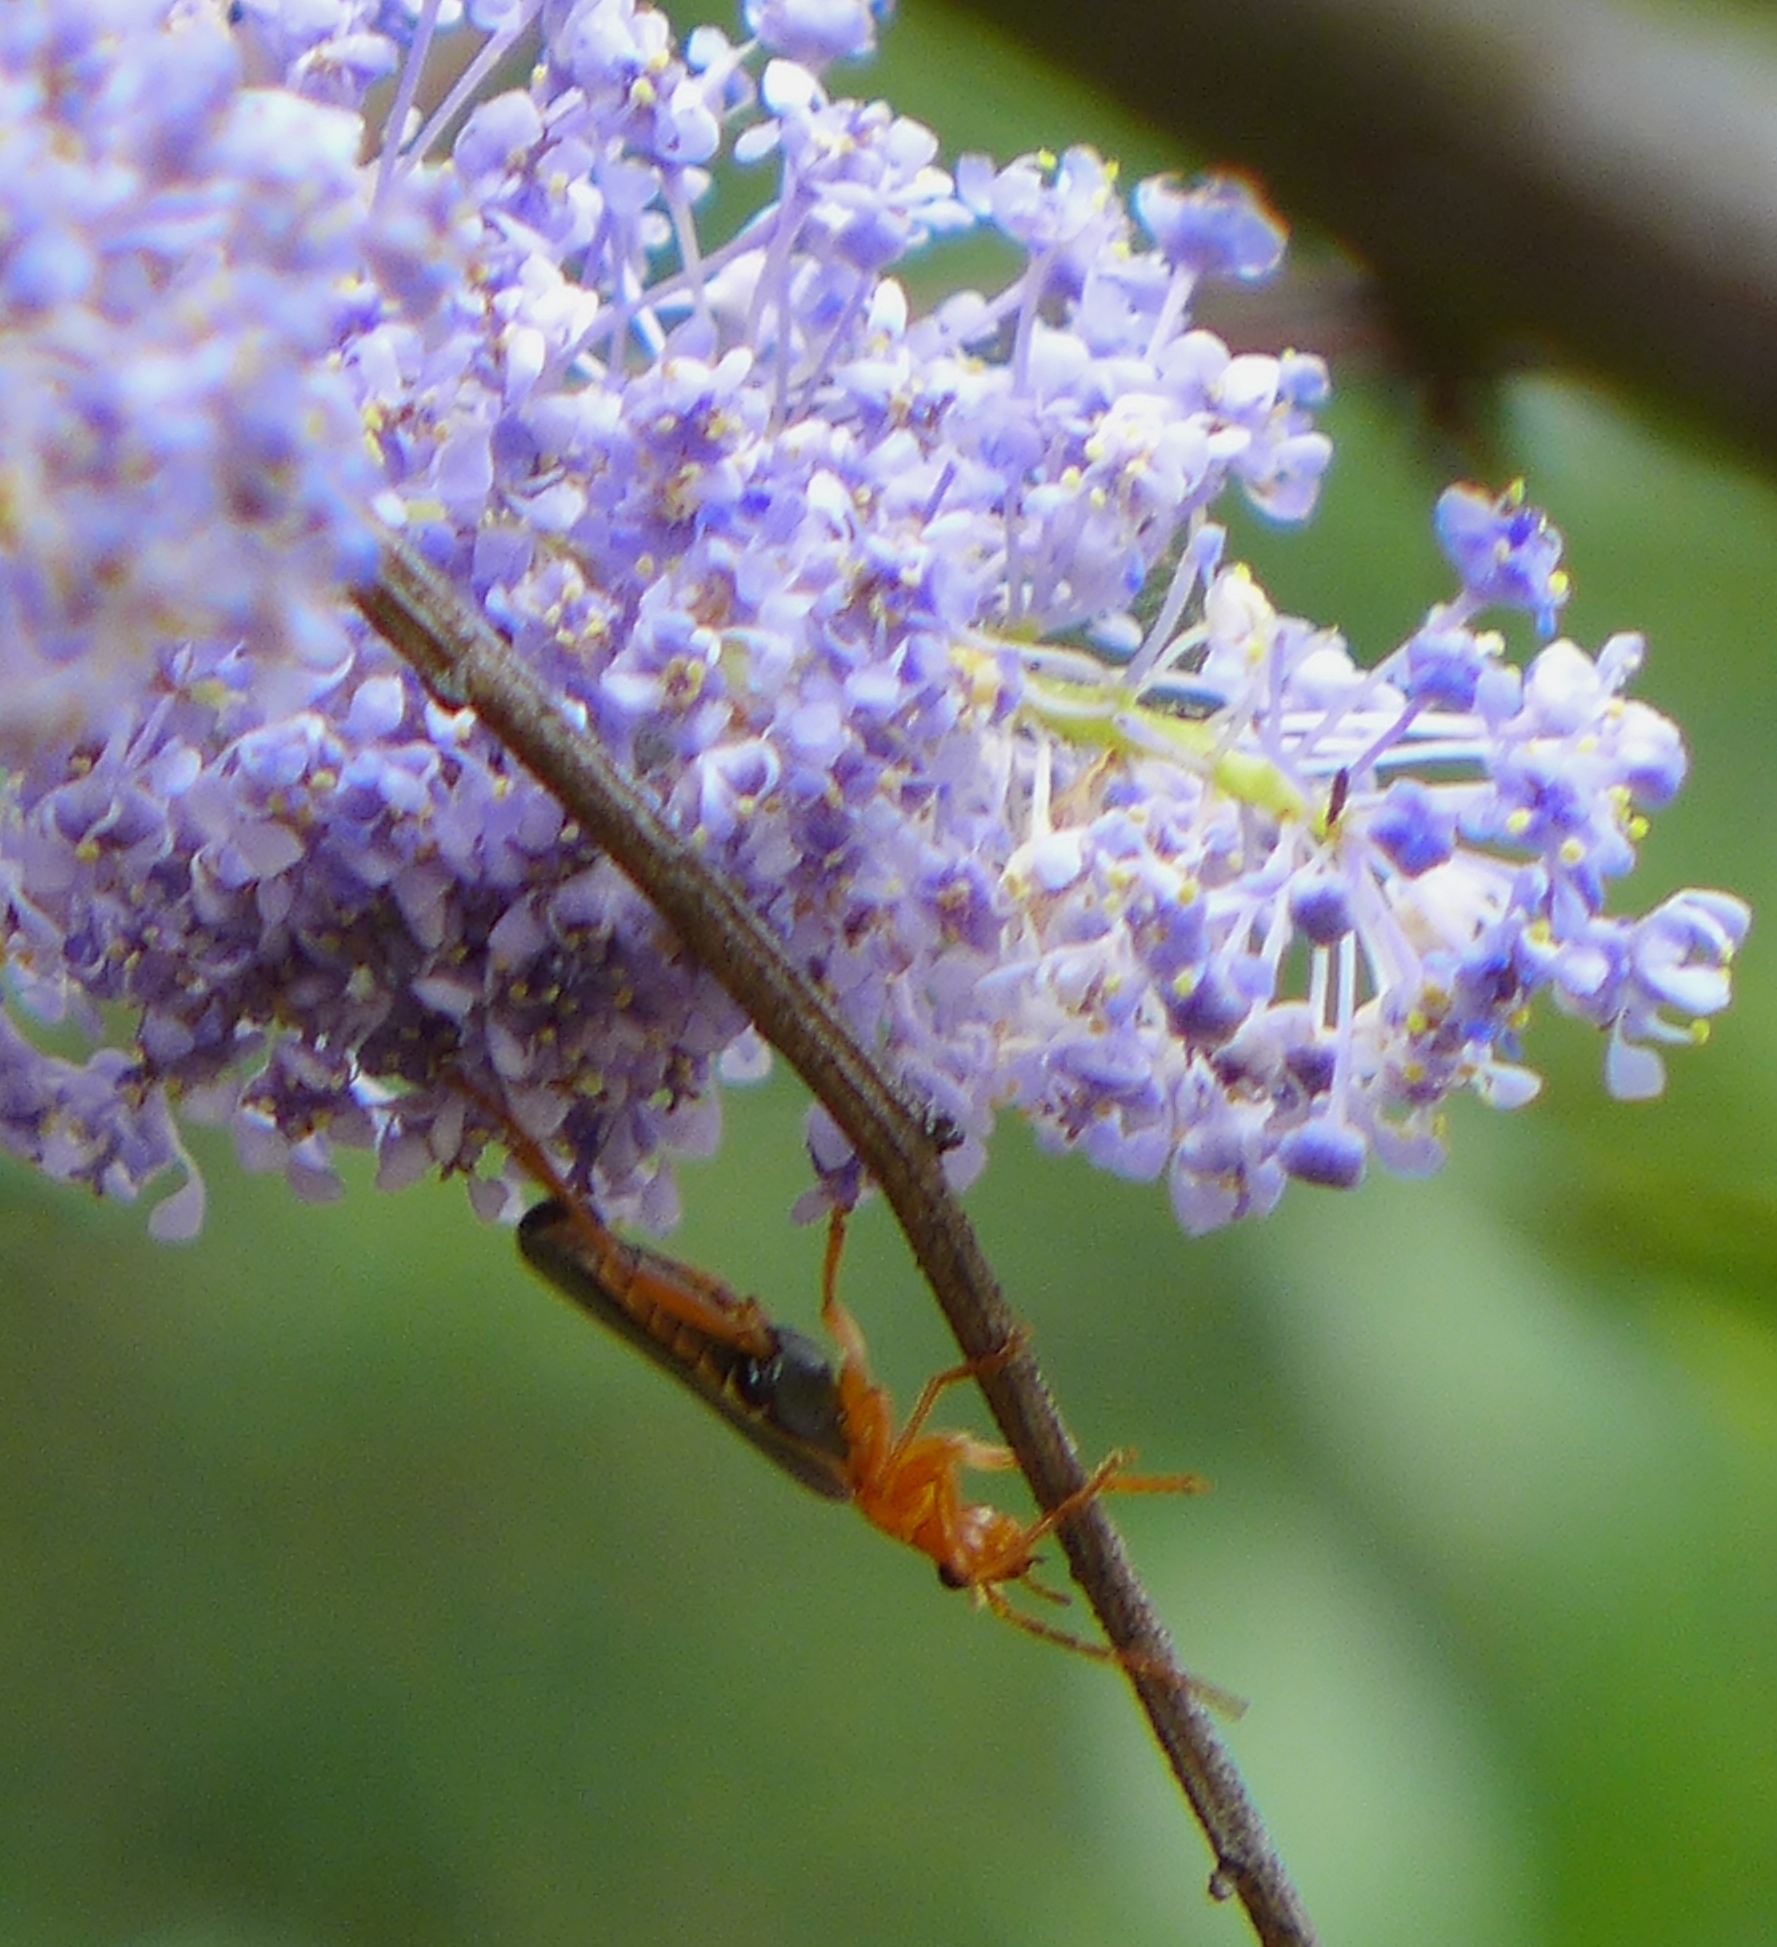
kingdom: Animalia
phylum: Arthropoda
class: Insecta
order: Coleoptera
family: Cantharidae
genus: Podabrus
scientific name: Podabrus pruinosus
